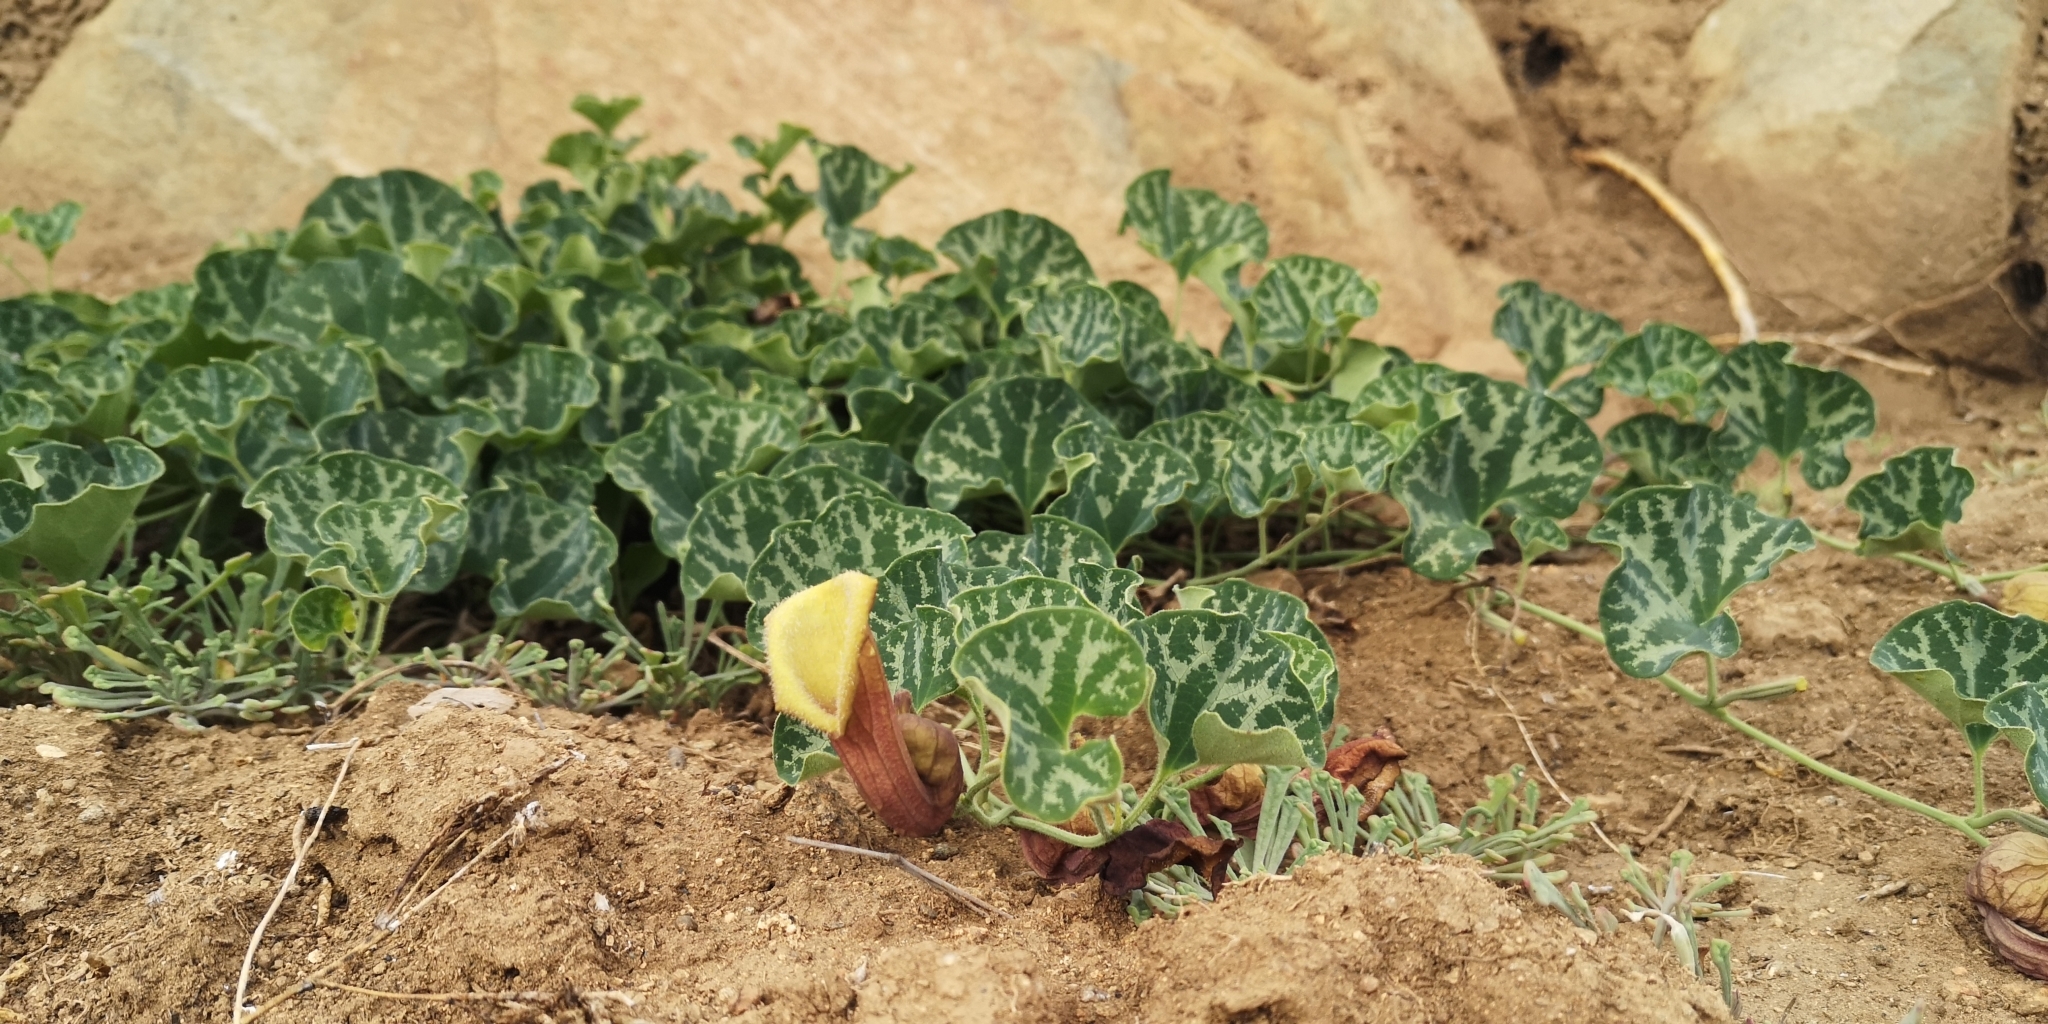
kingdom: Plantae
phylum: Tracheophyta
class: Magnoliopsida
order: Piperales
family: Aristolochiaceae
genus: Aristolochia
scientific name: Aristolochia chilensis
